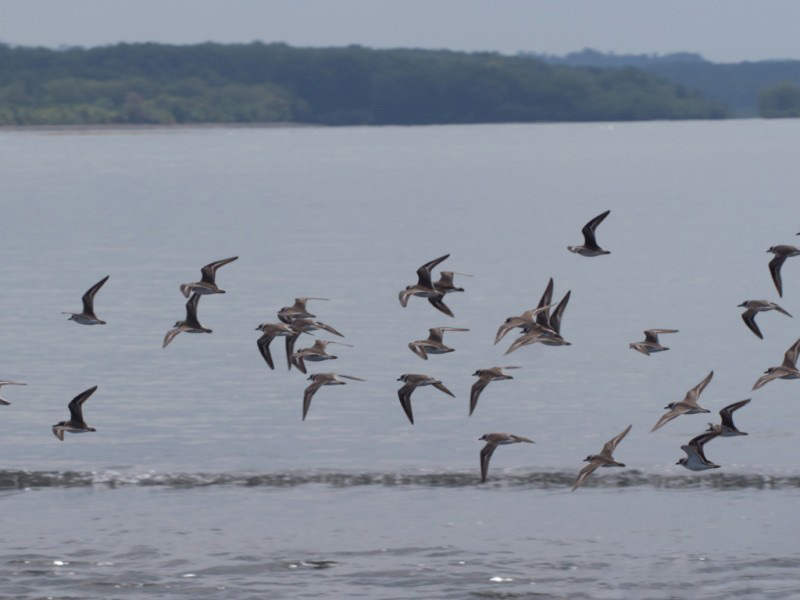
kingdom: Animalia
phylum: Chordata
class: Aves
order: Charadriiformes
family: Charadriidae
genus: Anarhynchus
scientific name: Anarhynchus
